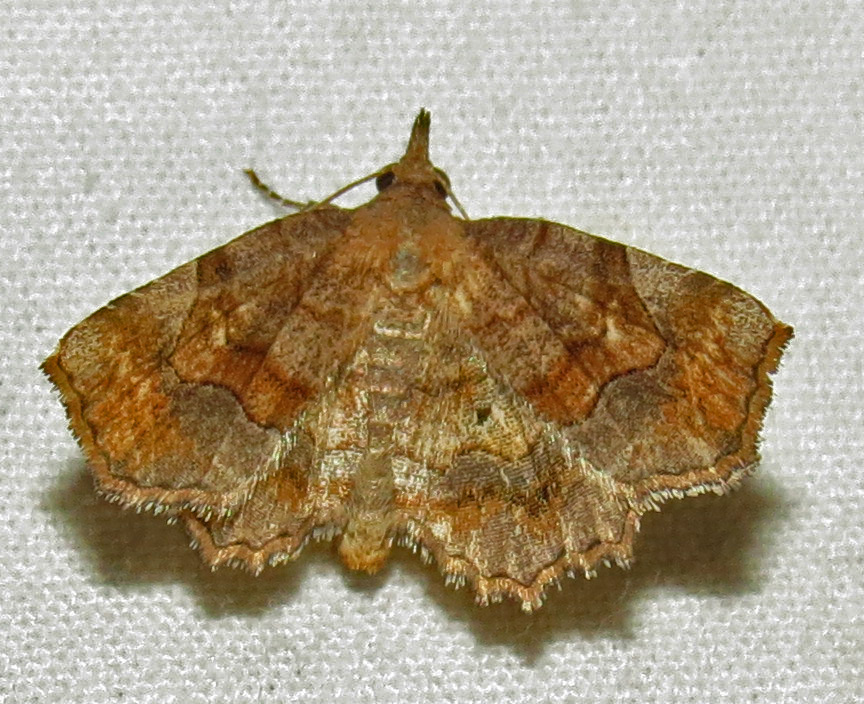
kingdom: Animalia
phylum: Arthropoda
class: Insecta
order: Lepidoptera
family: Erebidae
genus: Pangrapta
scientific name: Pangrapta decoralis
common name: Decorated owlet
